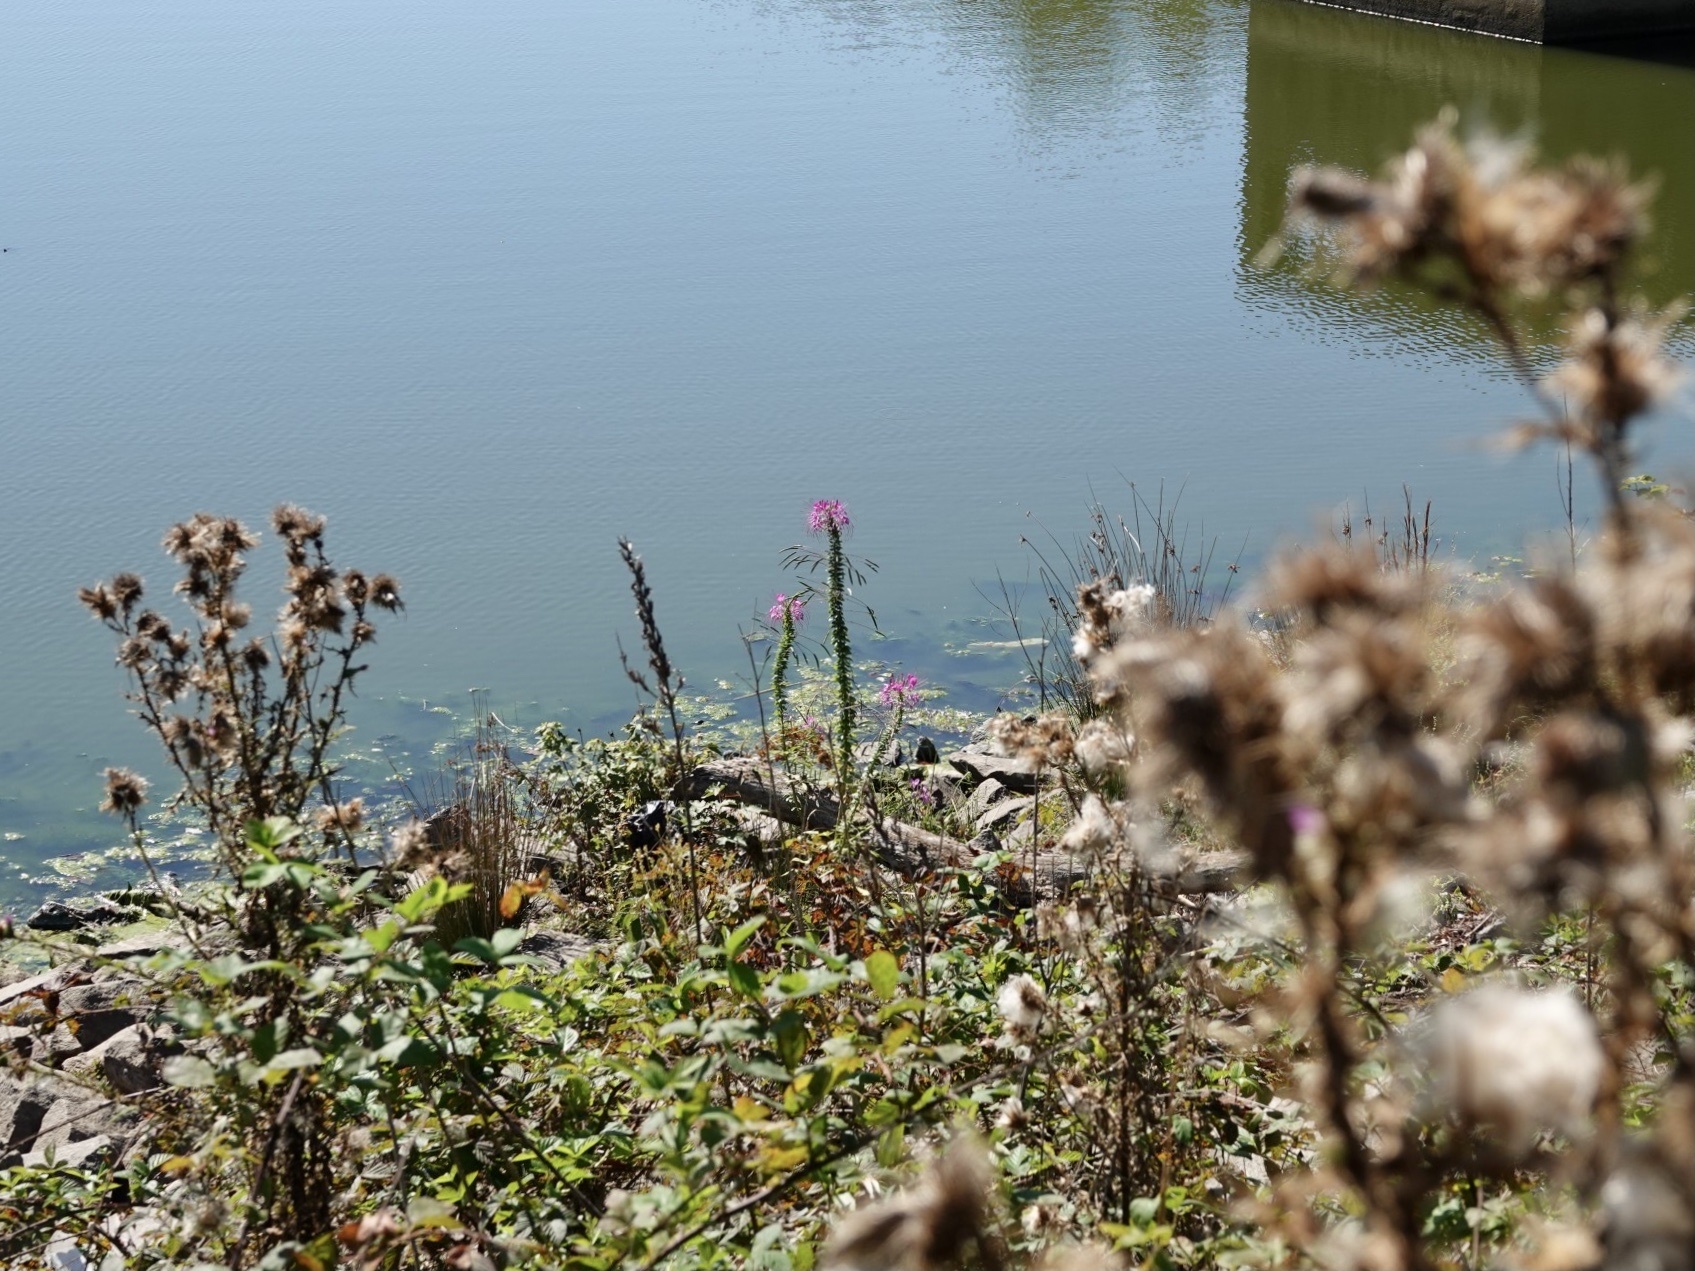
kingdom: Plantae
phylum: Tracheophyta
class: Magnoliopsida
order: Brassicales
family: Cleomaceae
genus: Tarenaya
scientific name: Tarenaya houtteana
